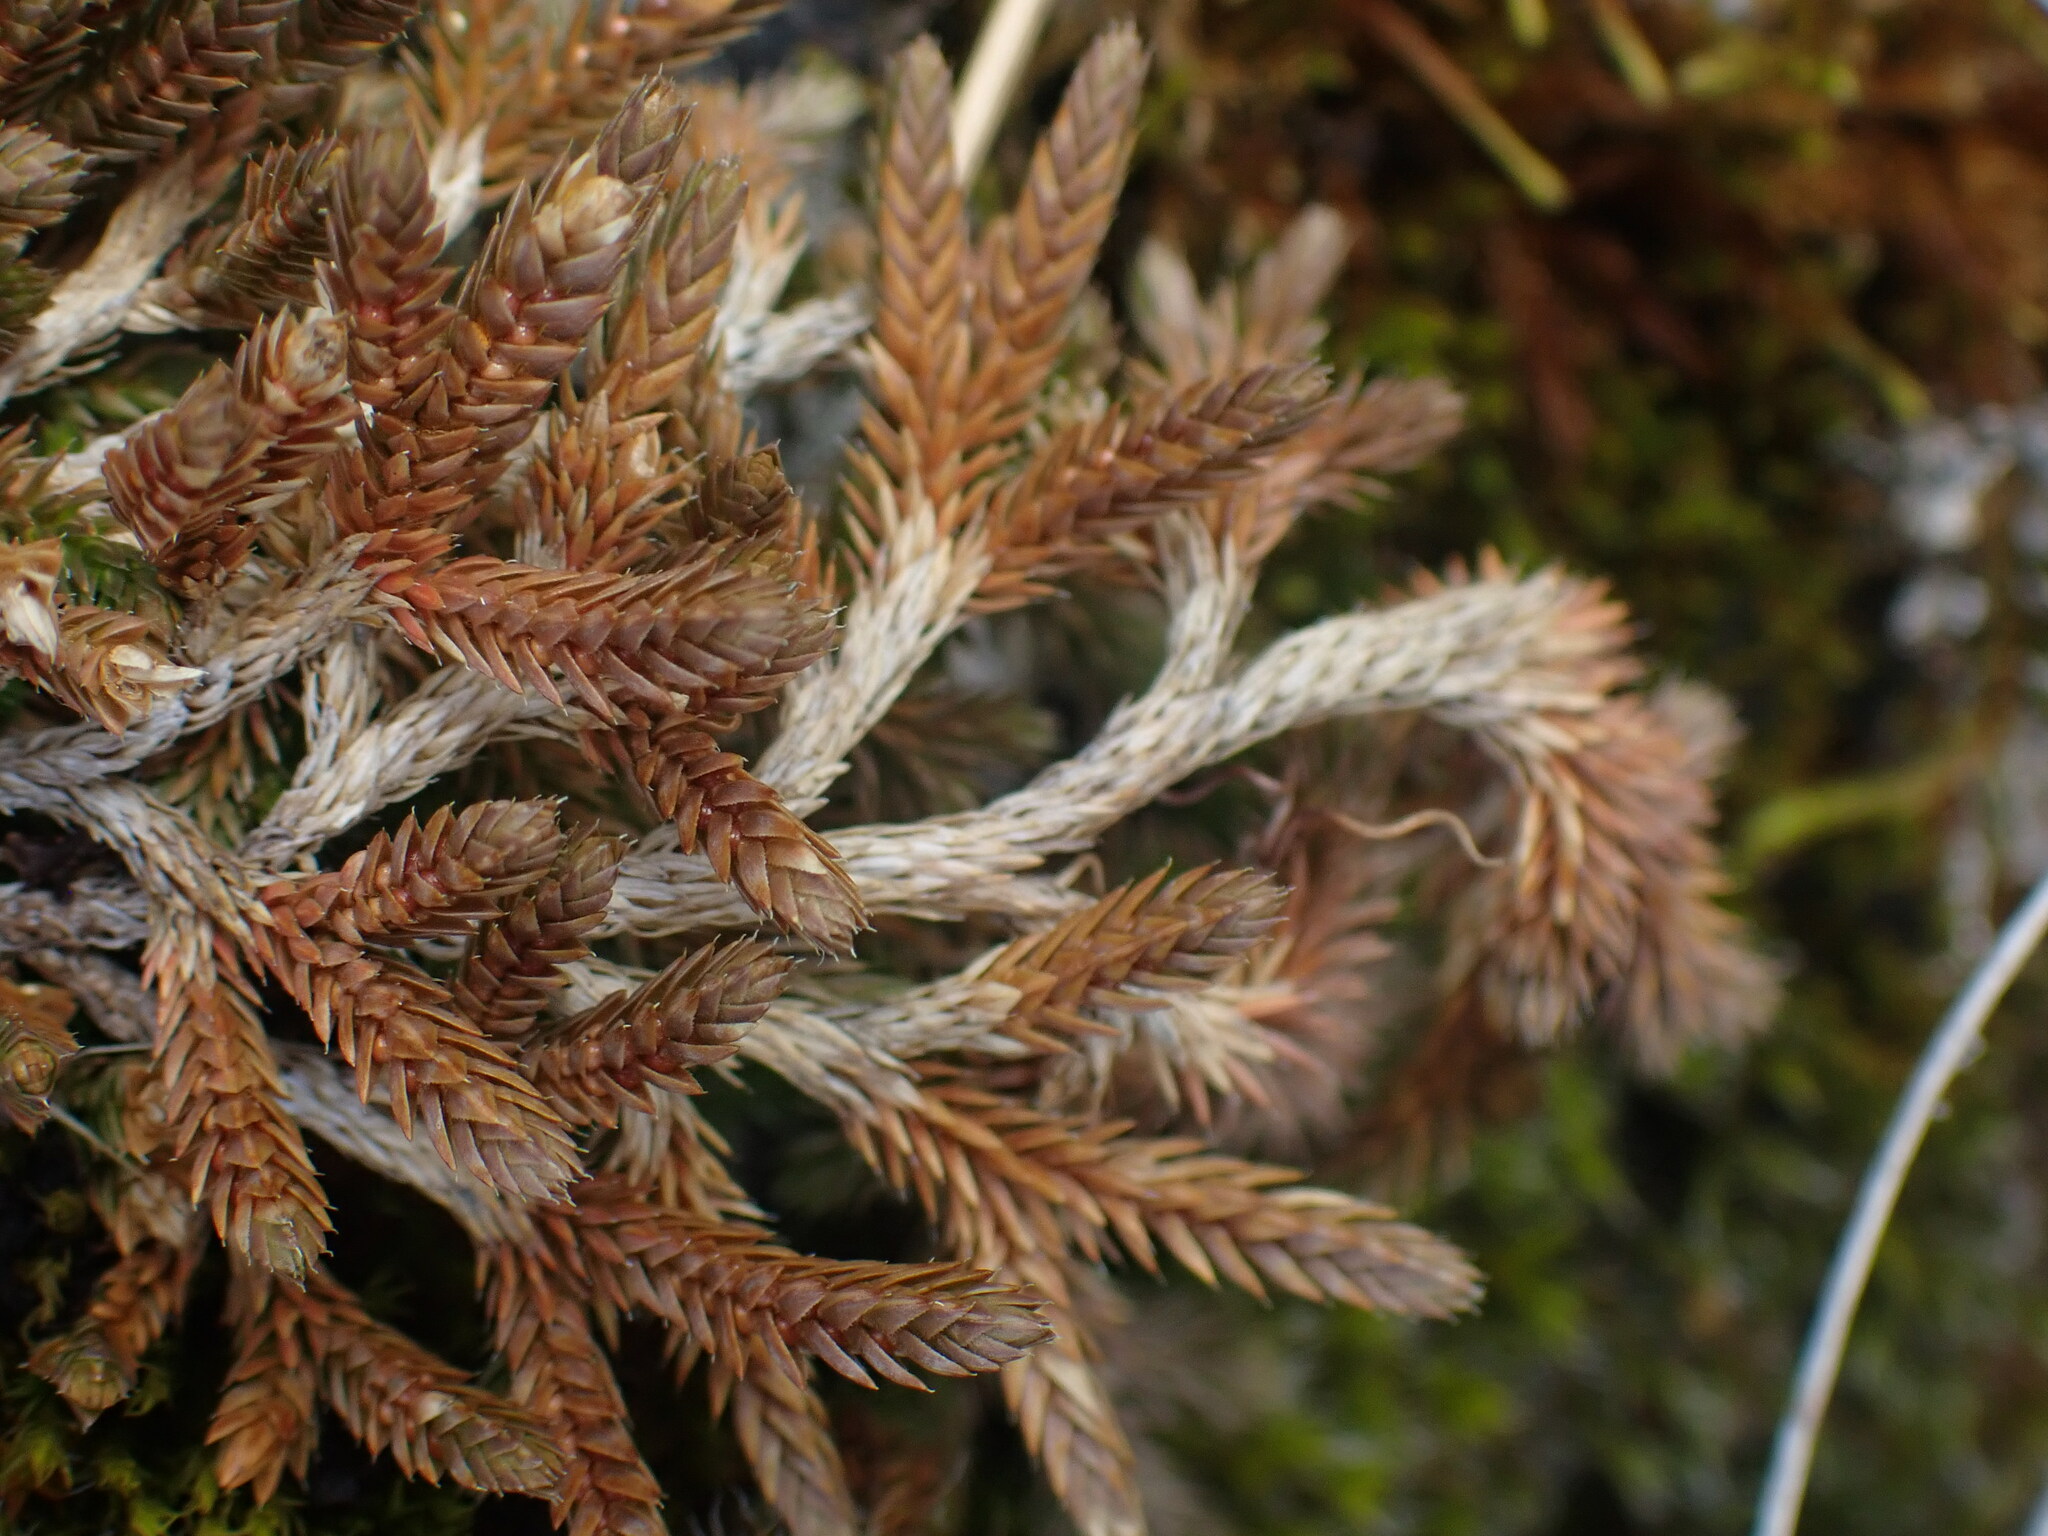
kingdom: Plantae
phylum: Tracheophyta
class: Lycopodiopsida
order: Selaginellales
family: Selaginellaceae
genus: Selaginella
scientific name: Selaginella wallacei
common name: Wallace's selaginella
